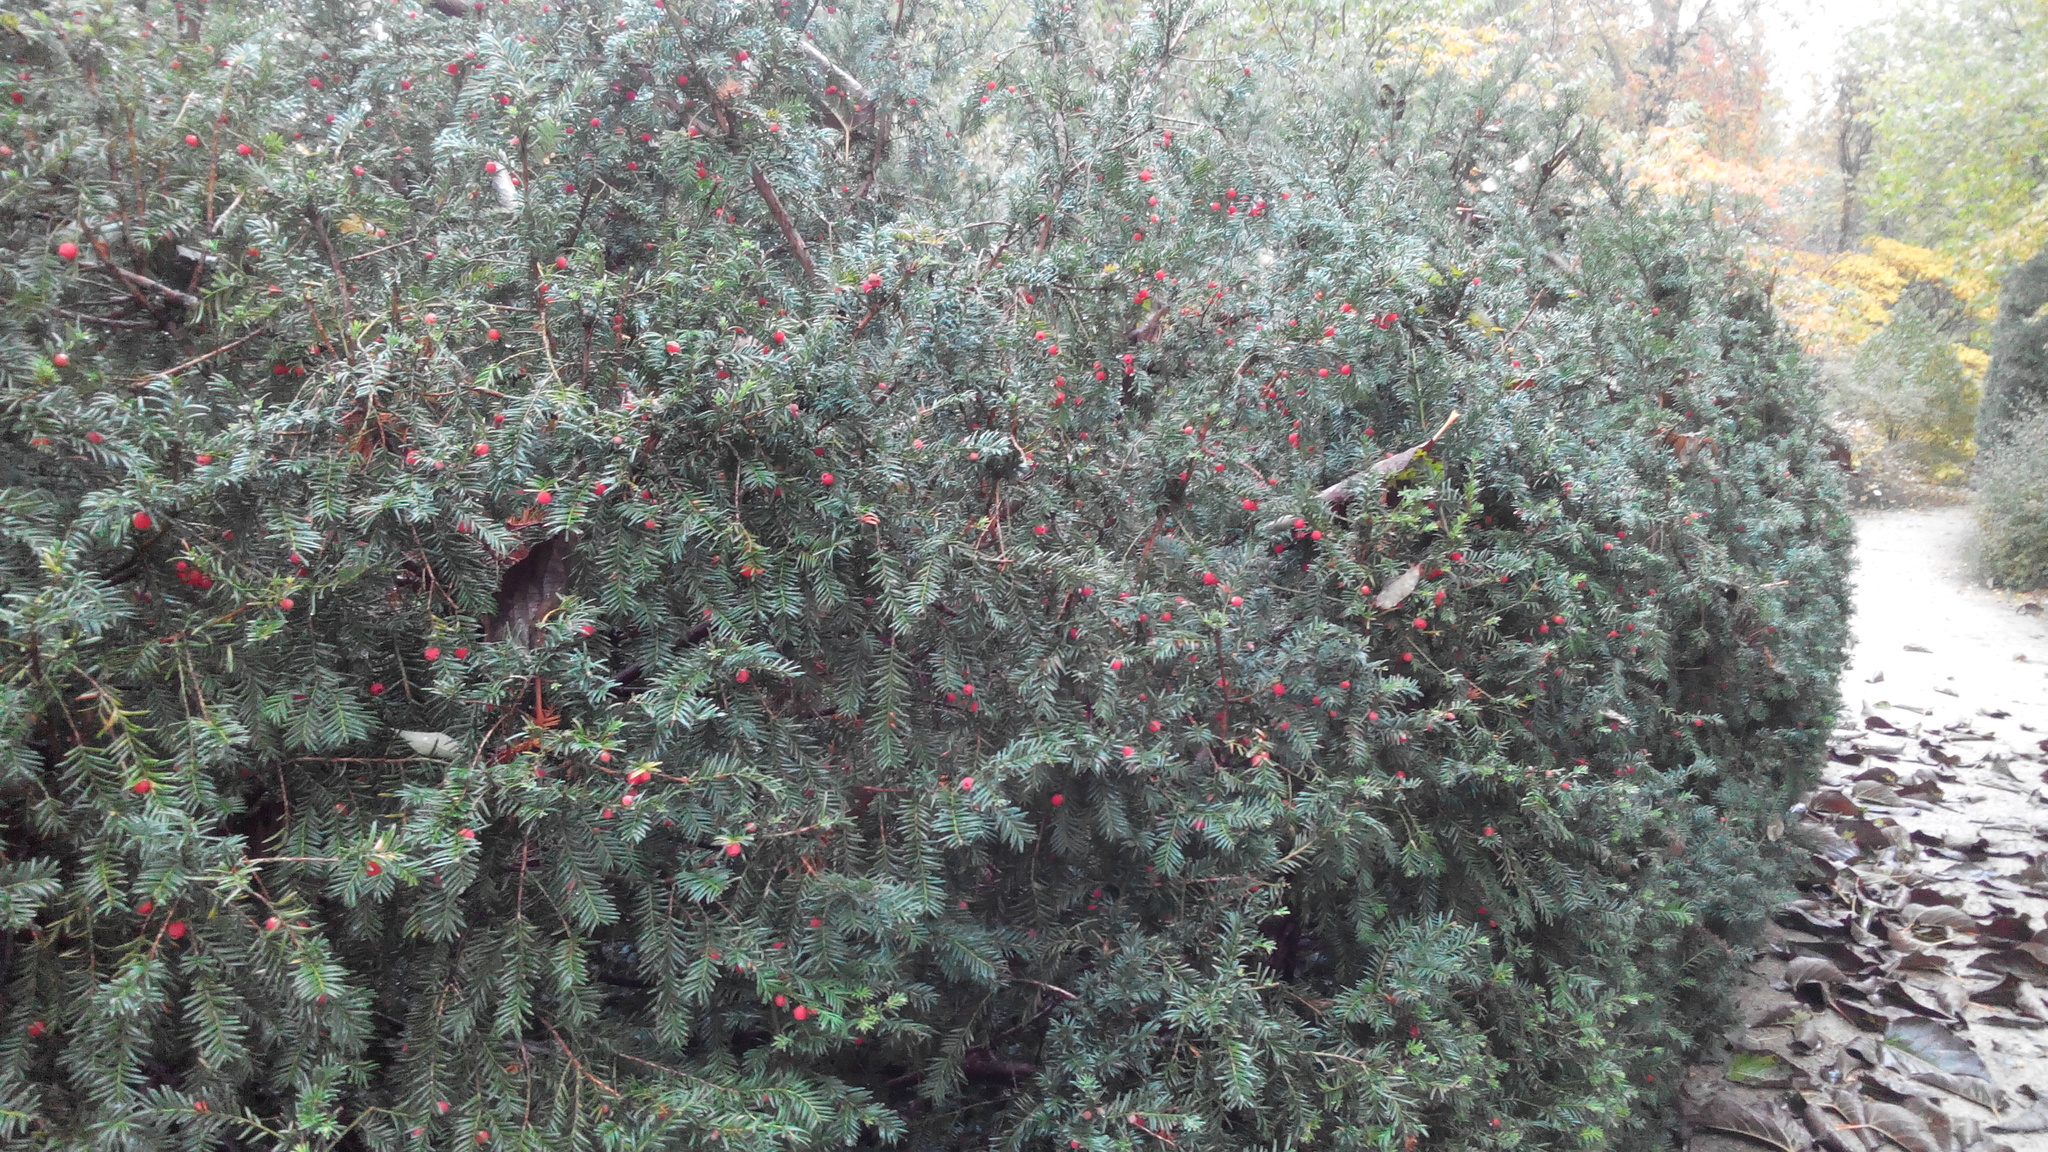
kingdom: Plantae
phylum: Tracheophyta
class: Pinopsida
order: Pinales
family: Taxaceae
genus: Taxus
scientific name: Taxus baccata
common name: Yew
